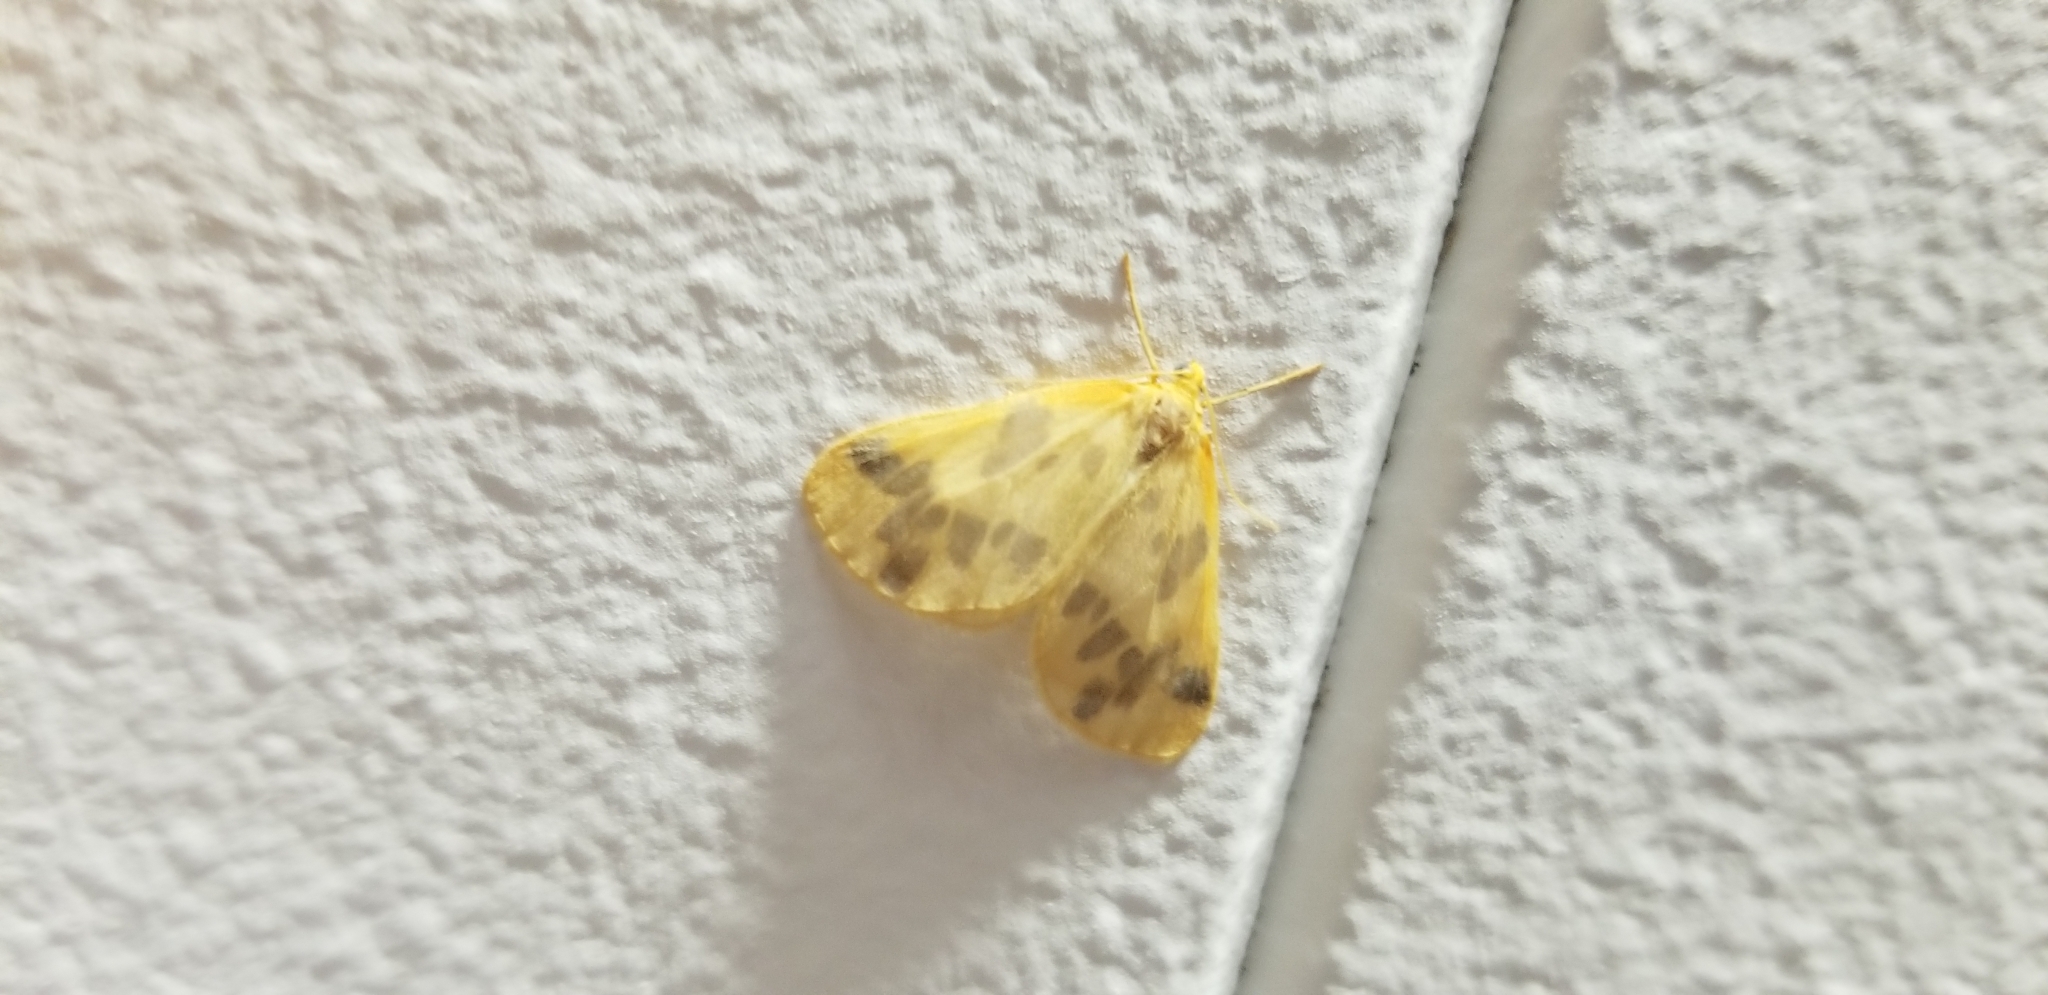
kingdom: Animalia
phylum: Arthropoda
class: Insecta
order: Lepidoptera
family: Geometridae
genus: Eubaphe
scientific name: Eubaphe mendica
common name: Beggar
